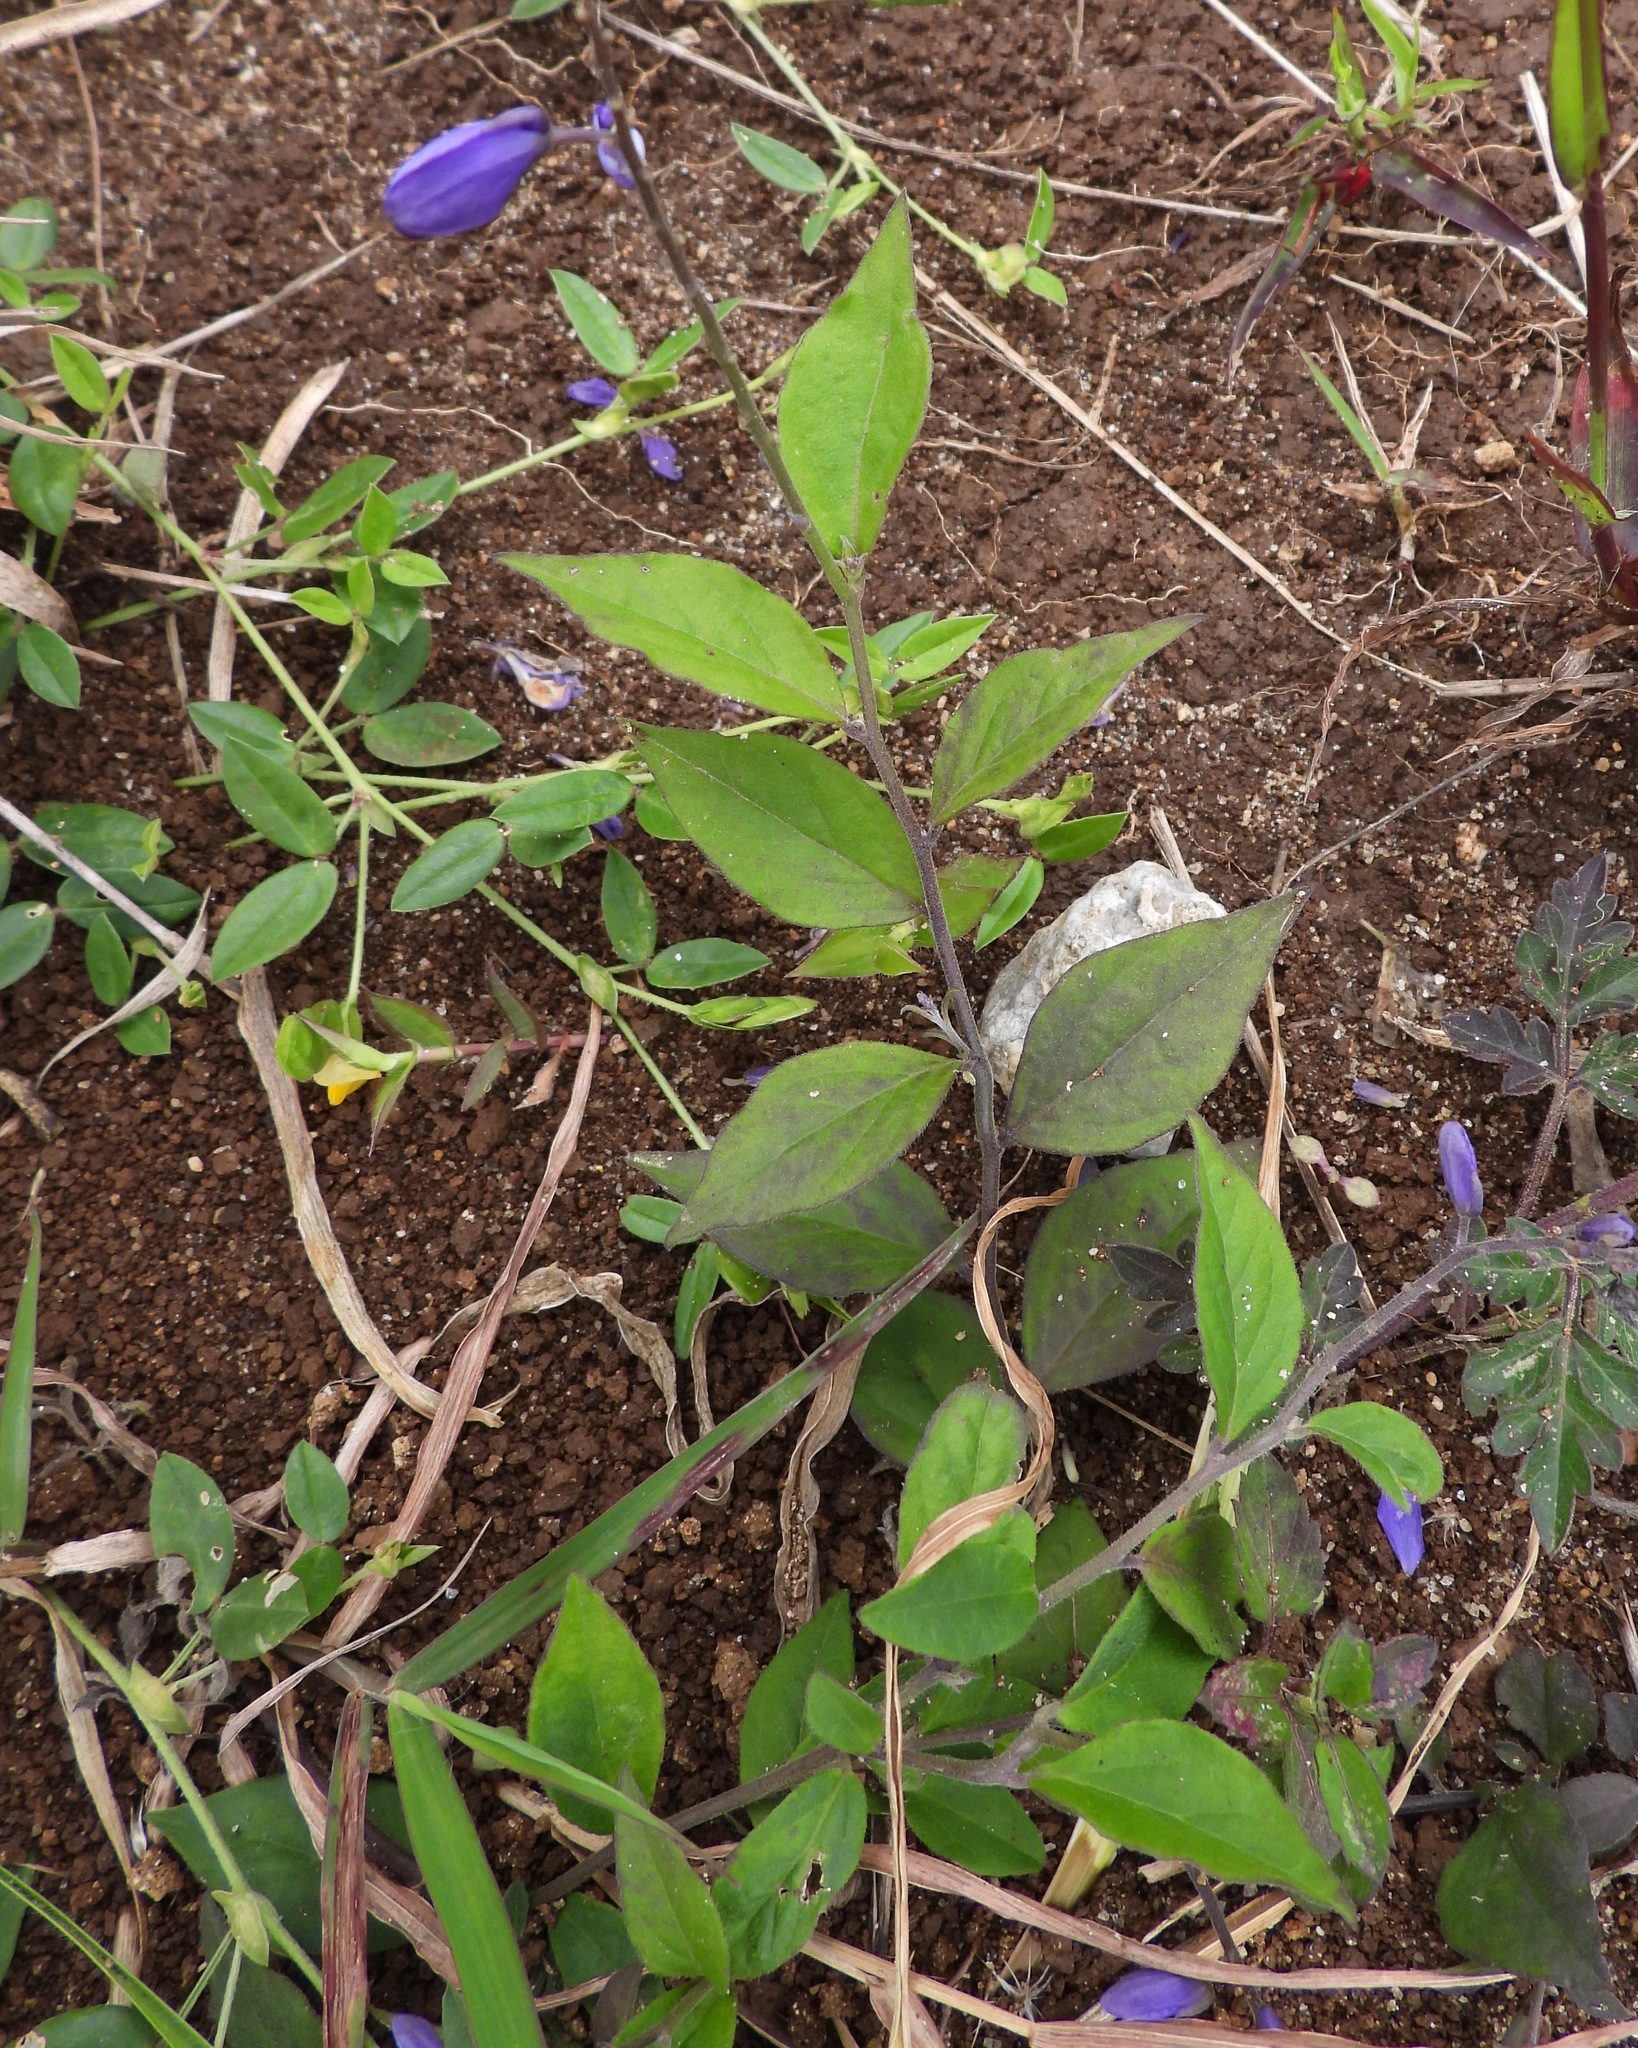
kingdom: Plantae
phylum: Tracheophyta
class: Magnoliopsida
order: Fabales
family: Polygalaceae
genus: Hebecarpa
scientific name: Hebecarpa costaricensis
